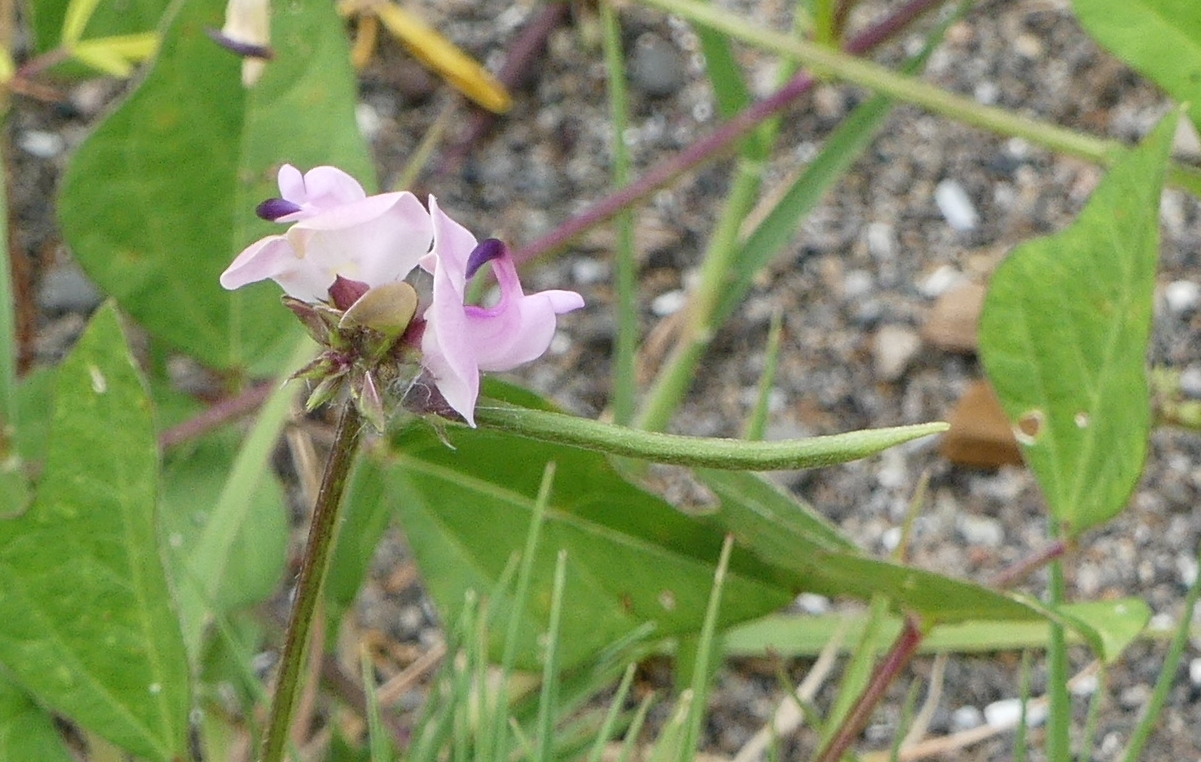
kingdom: Plantae
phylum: Tracheophyta
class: Magnoliopsida
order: Fabales
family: Fabaceae
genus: Strophostyles
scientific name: Strophostyles helvola
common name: Trailing wild bean
